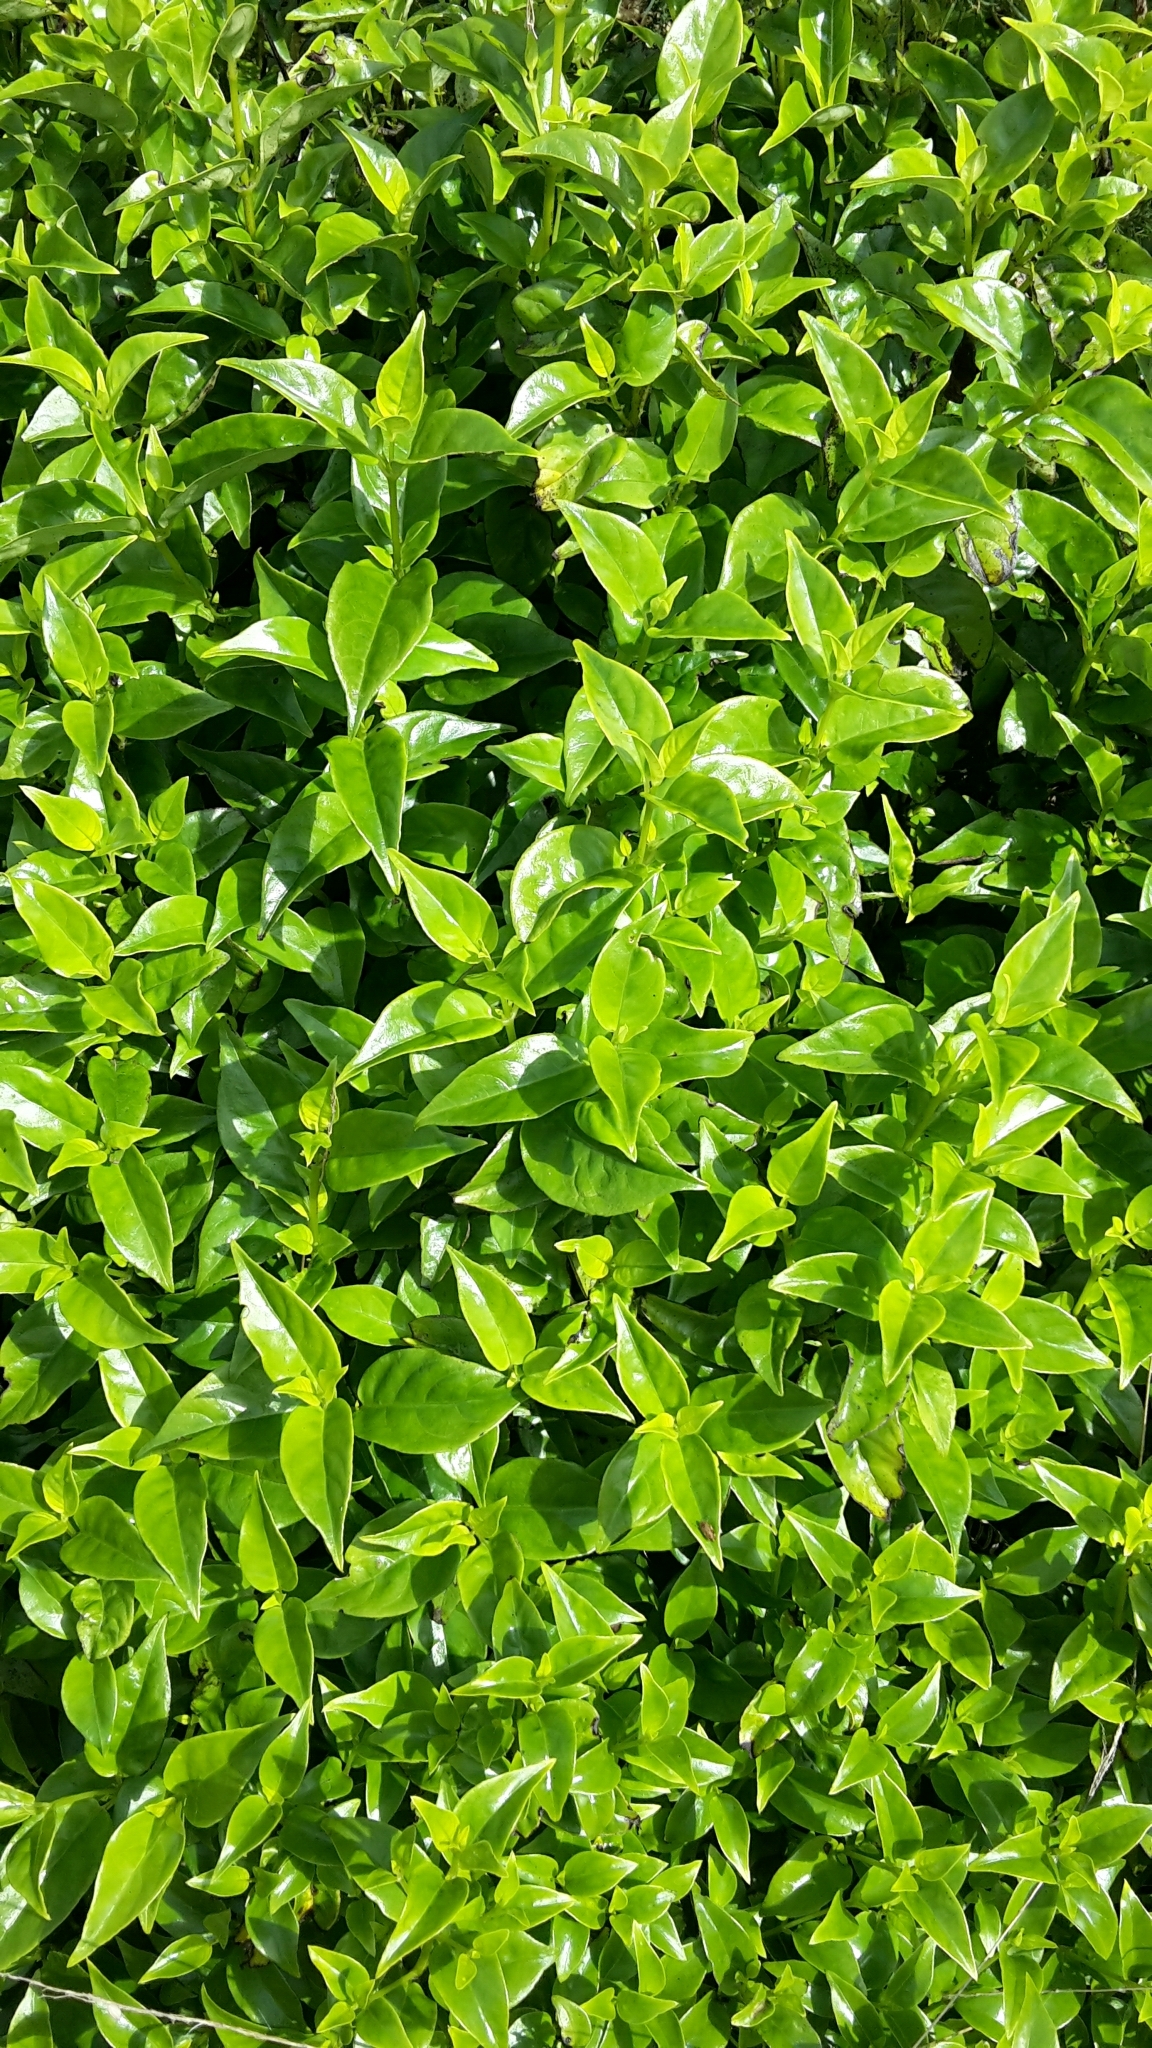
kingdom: Plantae
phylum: Tracheophyta
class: Magnoliopsida
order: Gentianales
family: Loganiaceae
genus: Geniostoma
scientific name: Geniostoma ligustrifolium
